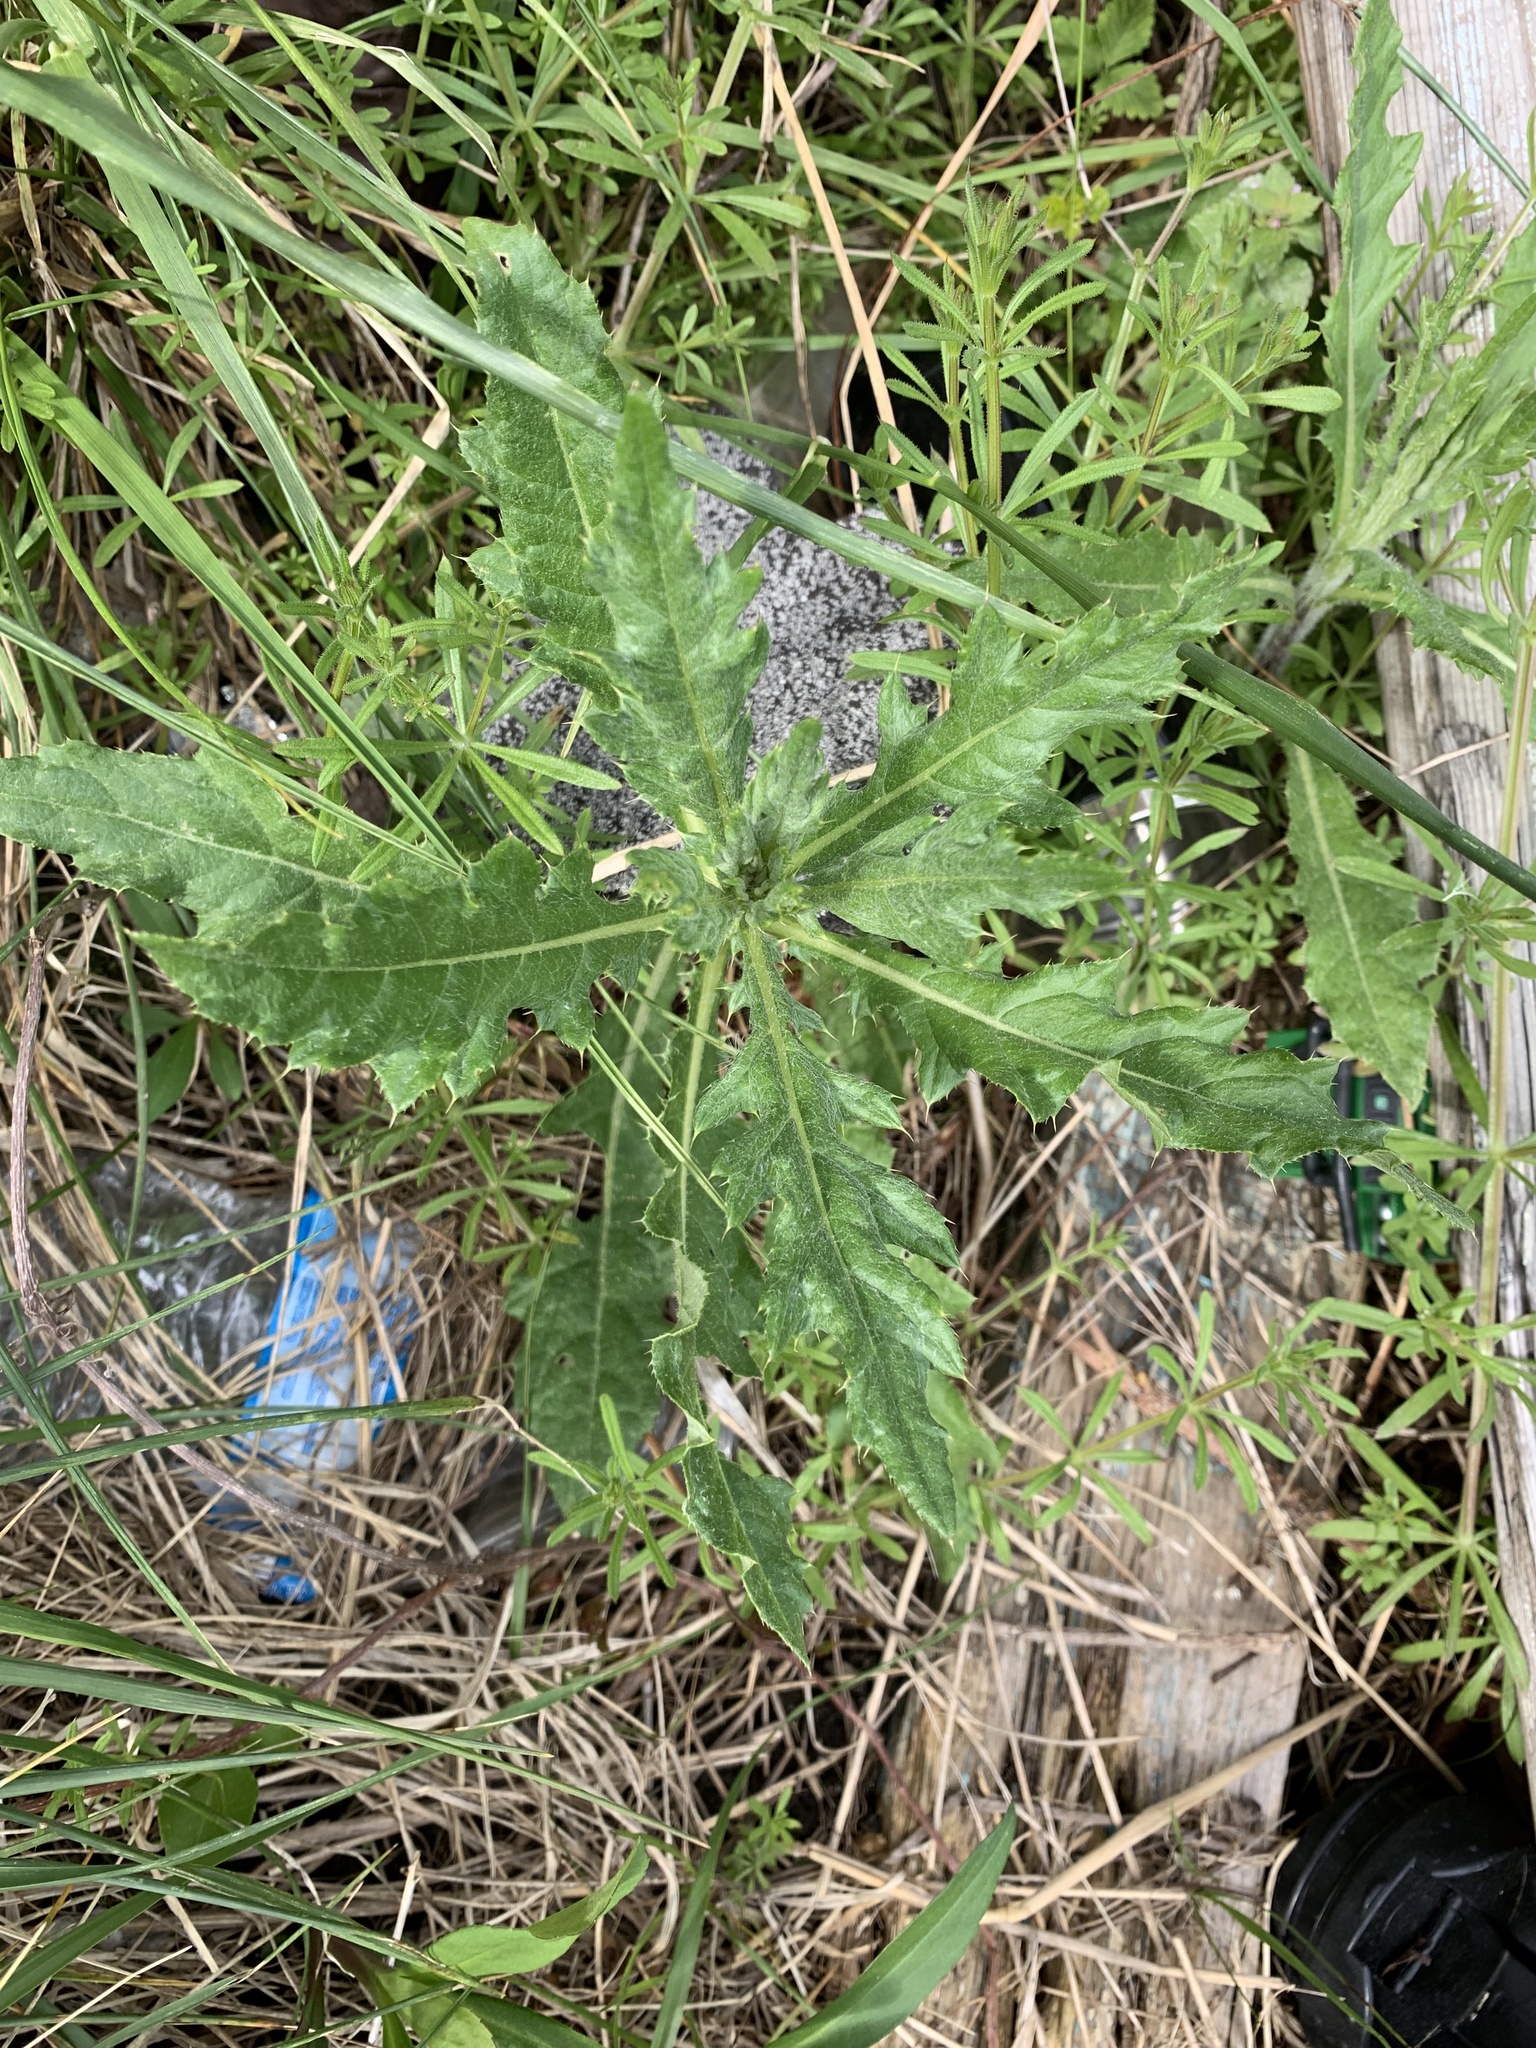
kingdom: Plantae
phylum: Tracheophyta
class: Magnoliopsida
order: Asterales
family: Asteraceae
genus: Cirsium
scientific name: Cirsium arvense
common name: Creeping thistle
